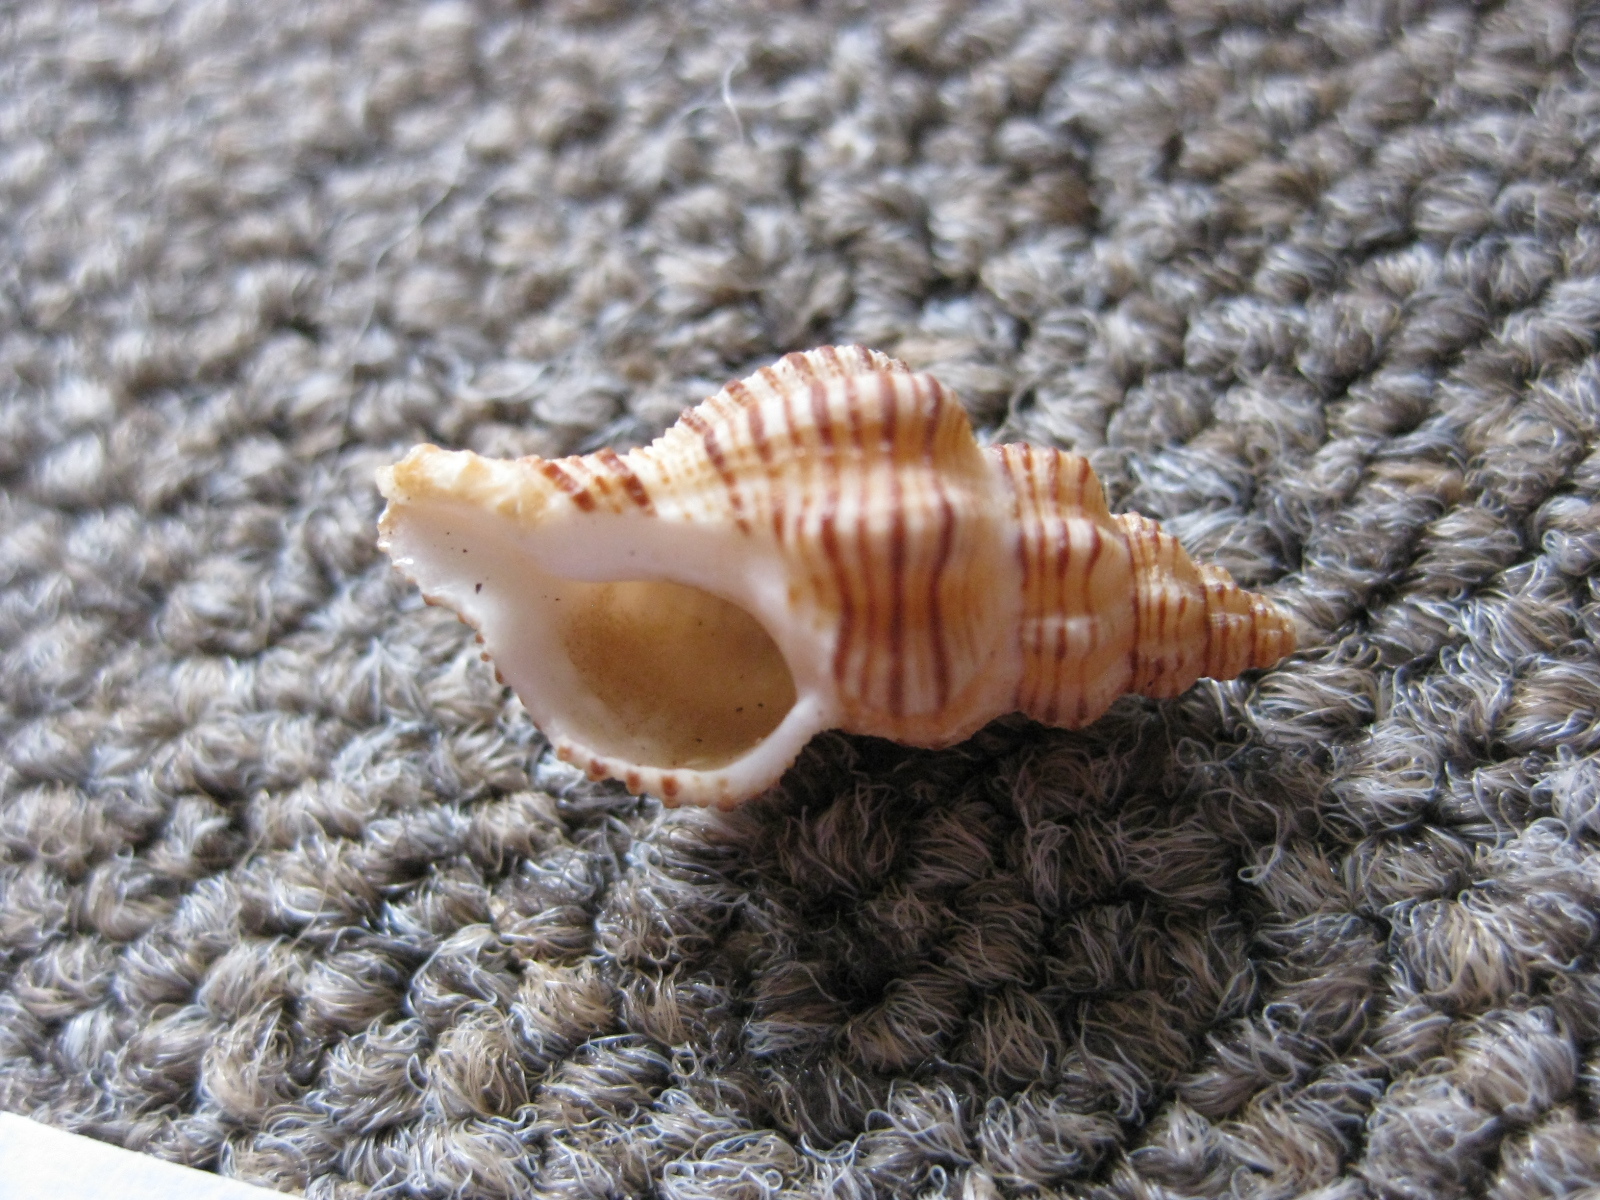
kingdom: Animalia
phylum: Mollusca
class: Gastropoda
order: Neogastropoda
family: Muricidae
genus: Murexsul
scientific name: Murexsul mariae
